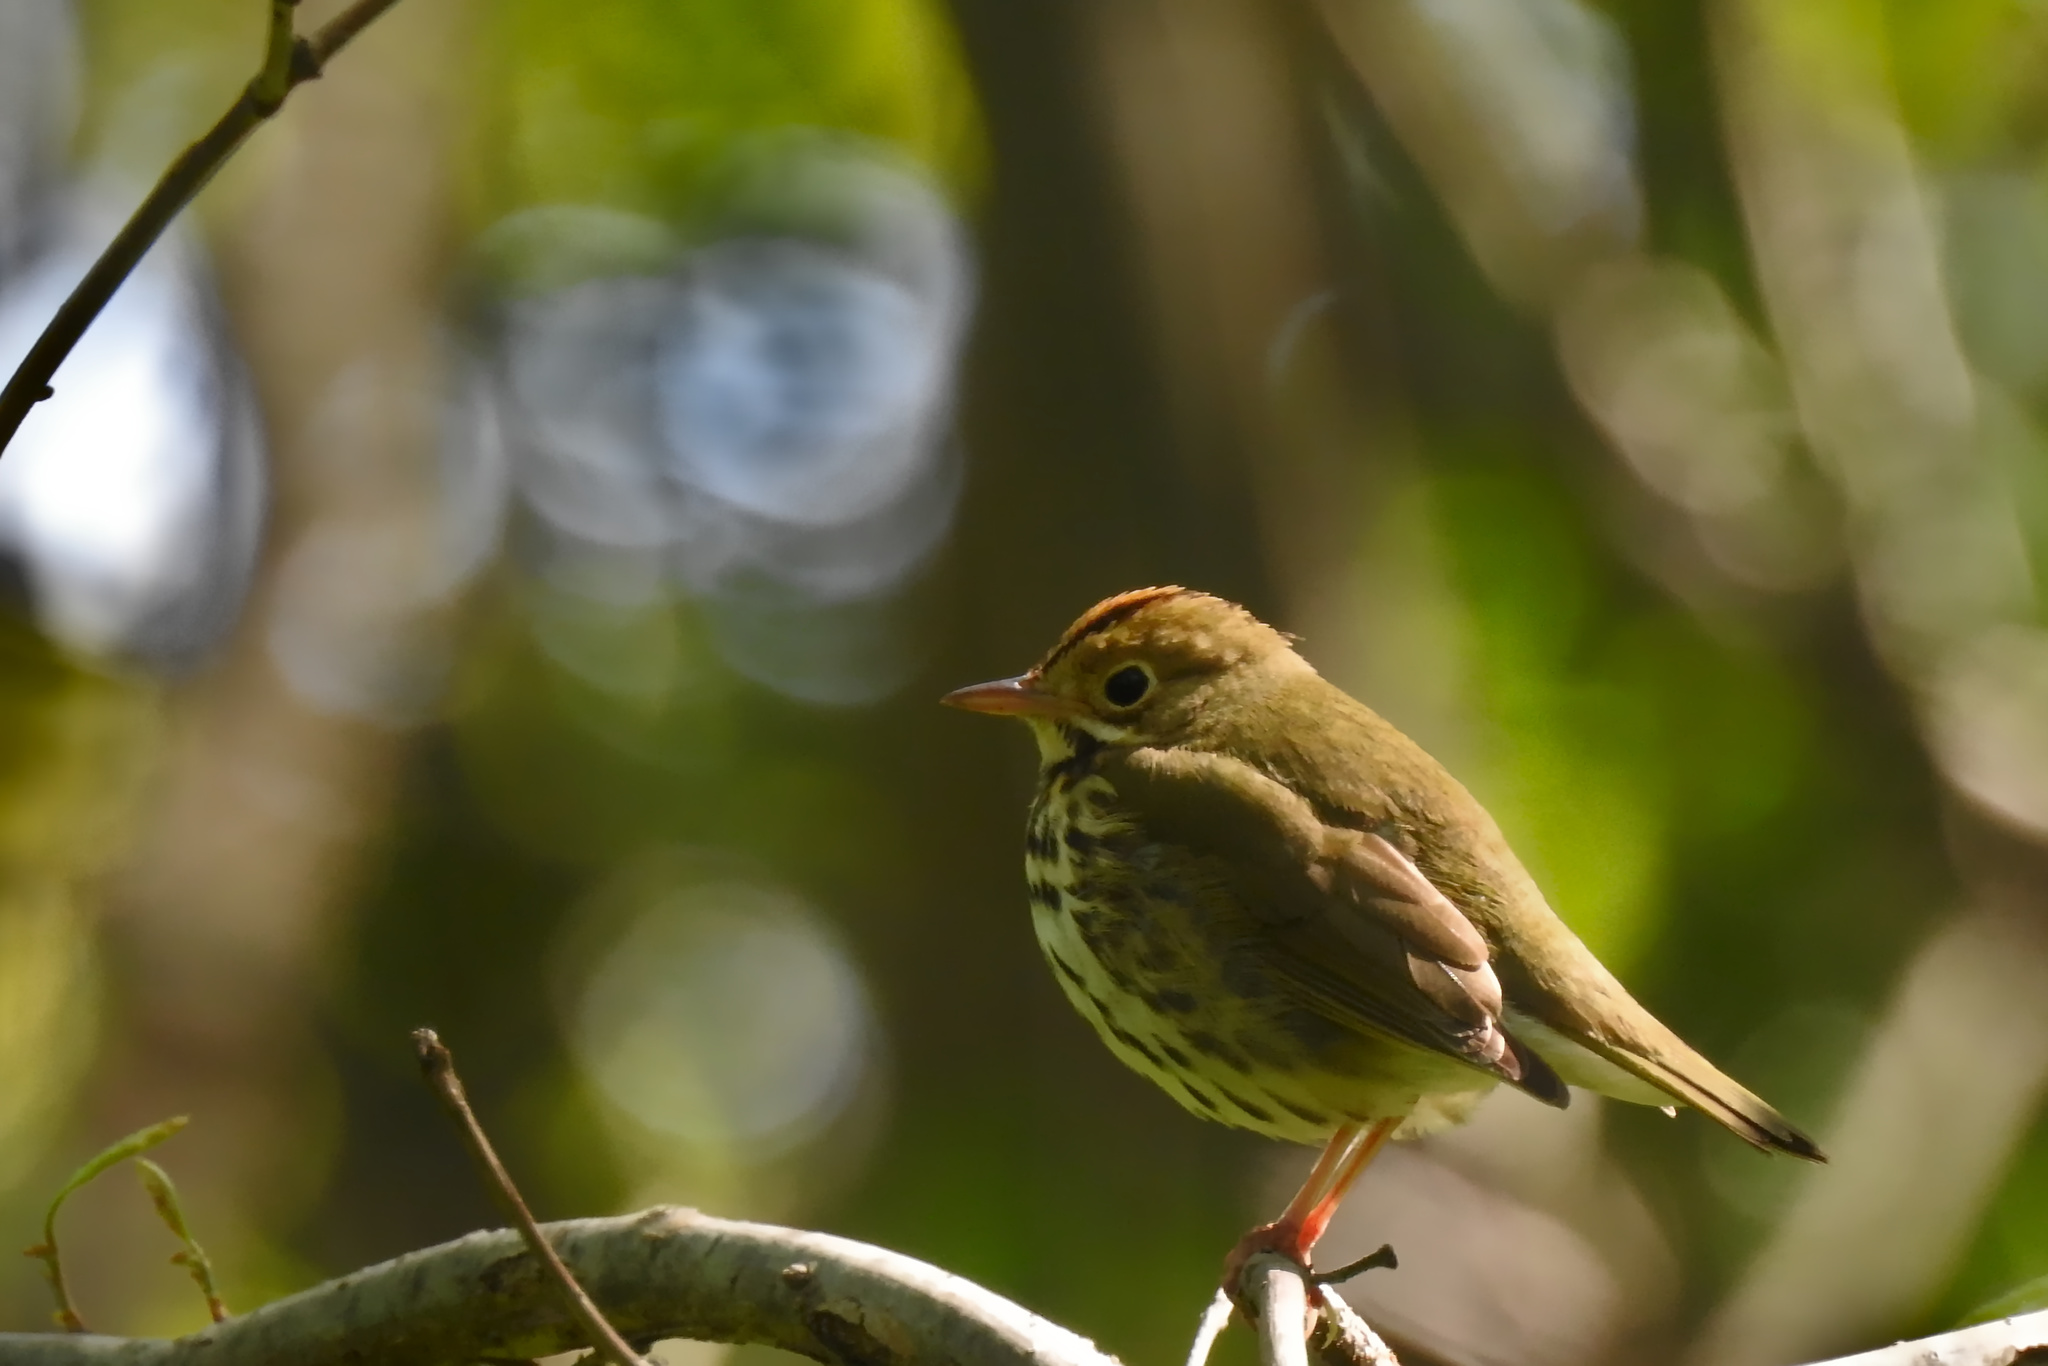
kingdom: Animalia
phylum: Chordata
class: Aves
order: Passeriformes
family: Parulidae
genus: Seiurus
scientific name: Seiurus aurocapilla
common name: Ovenbird
